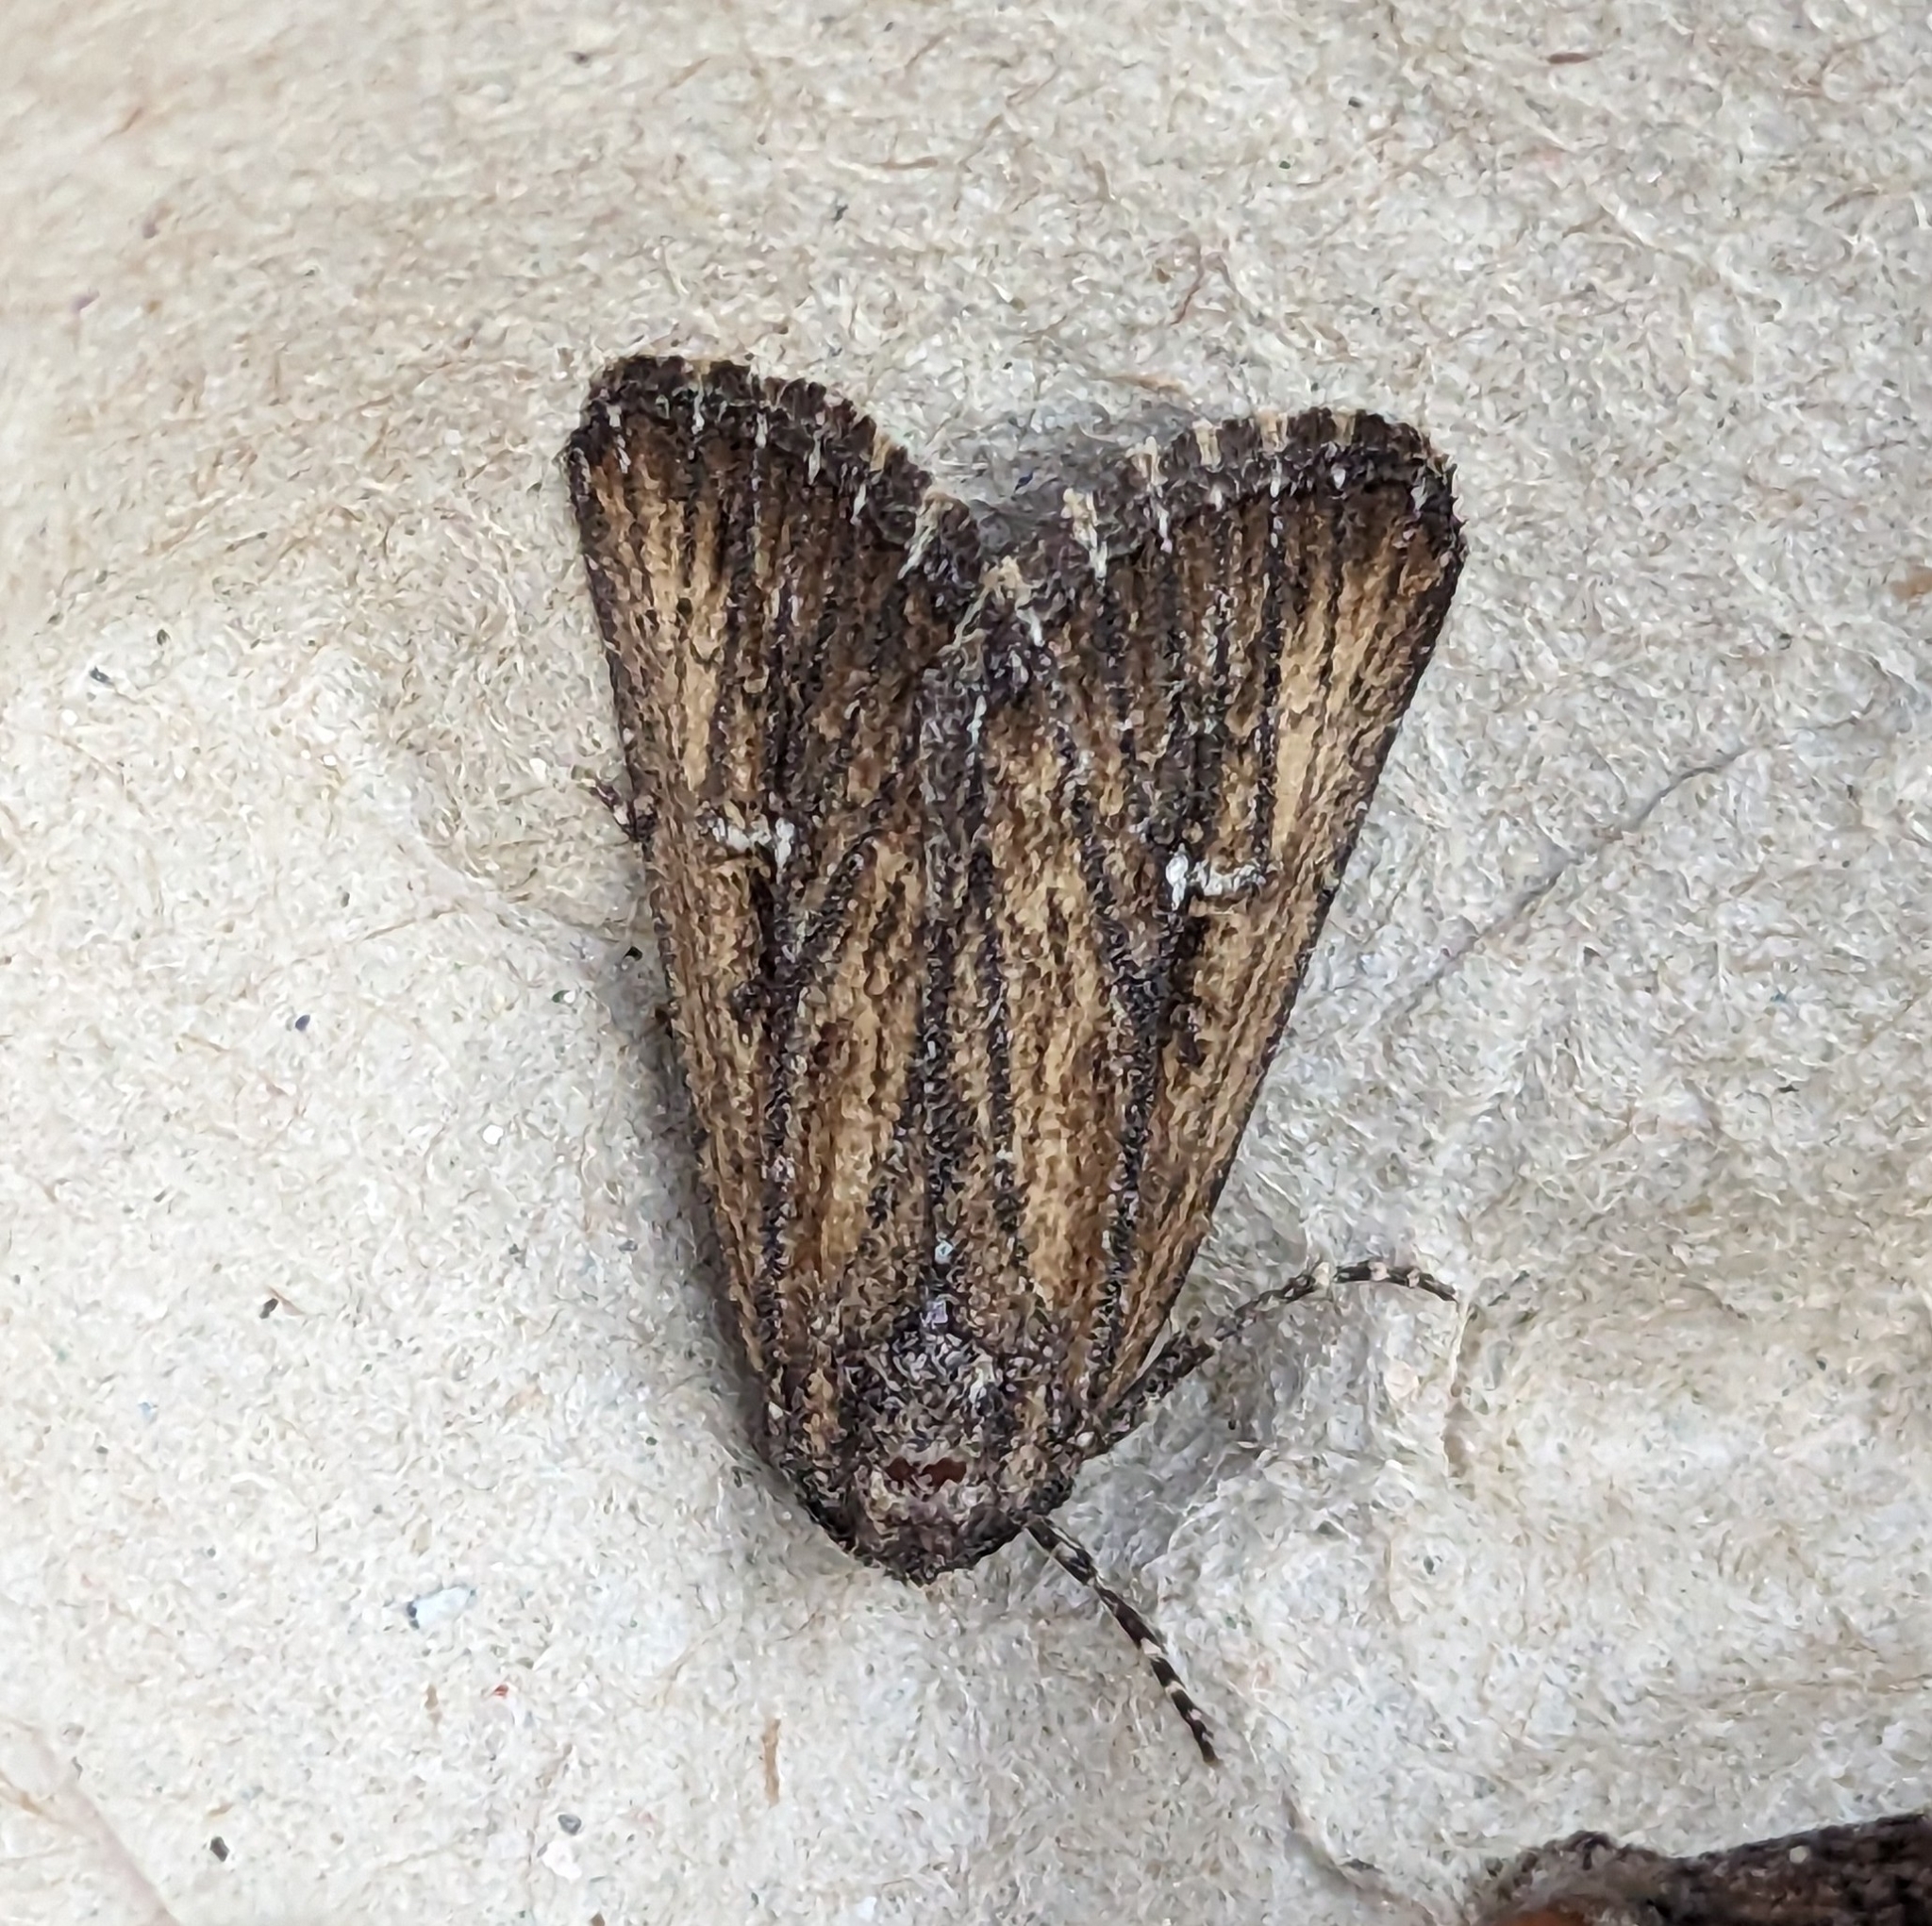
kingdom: Animalia
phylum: Arthropoda
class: Insecta
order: Lepidoptera
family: Noctuidae
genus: Condica
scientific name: Condica discistriga
